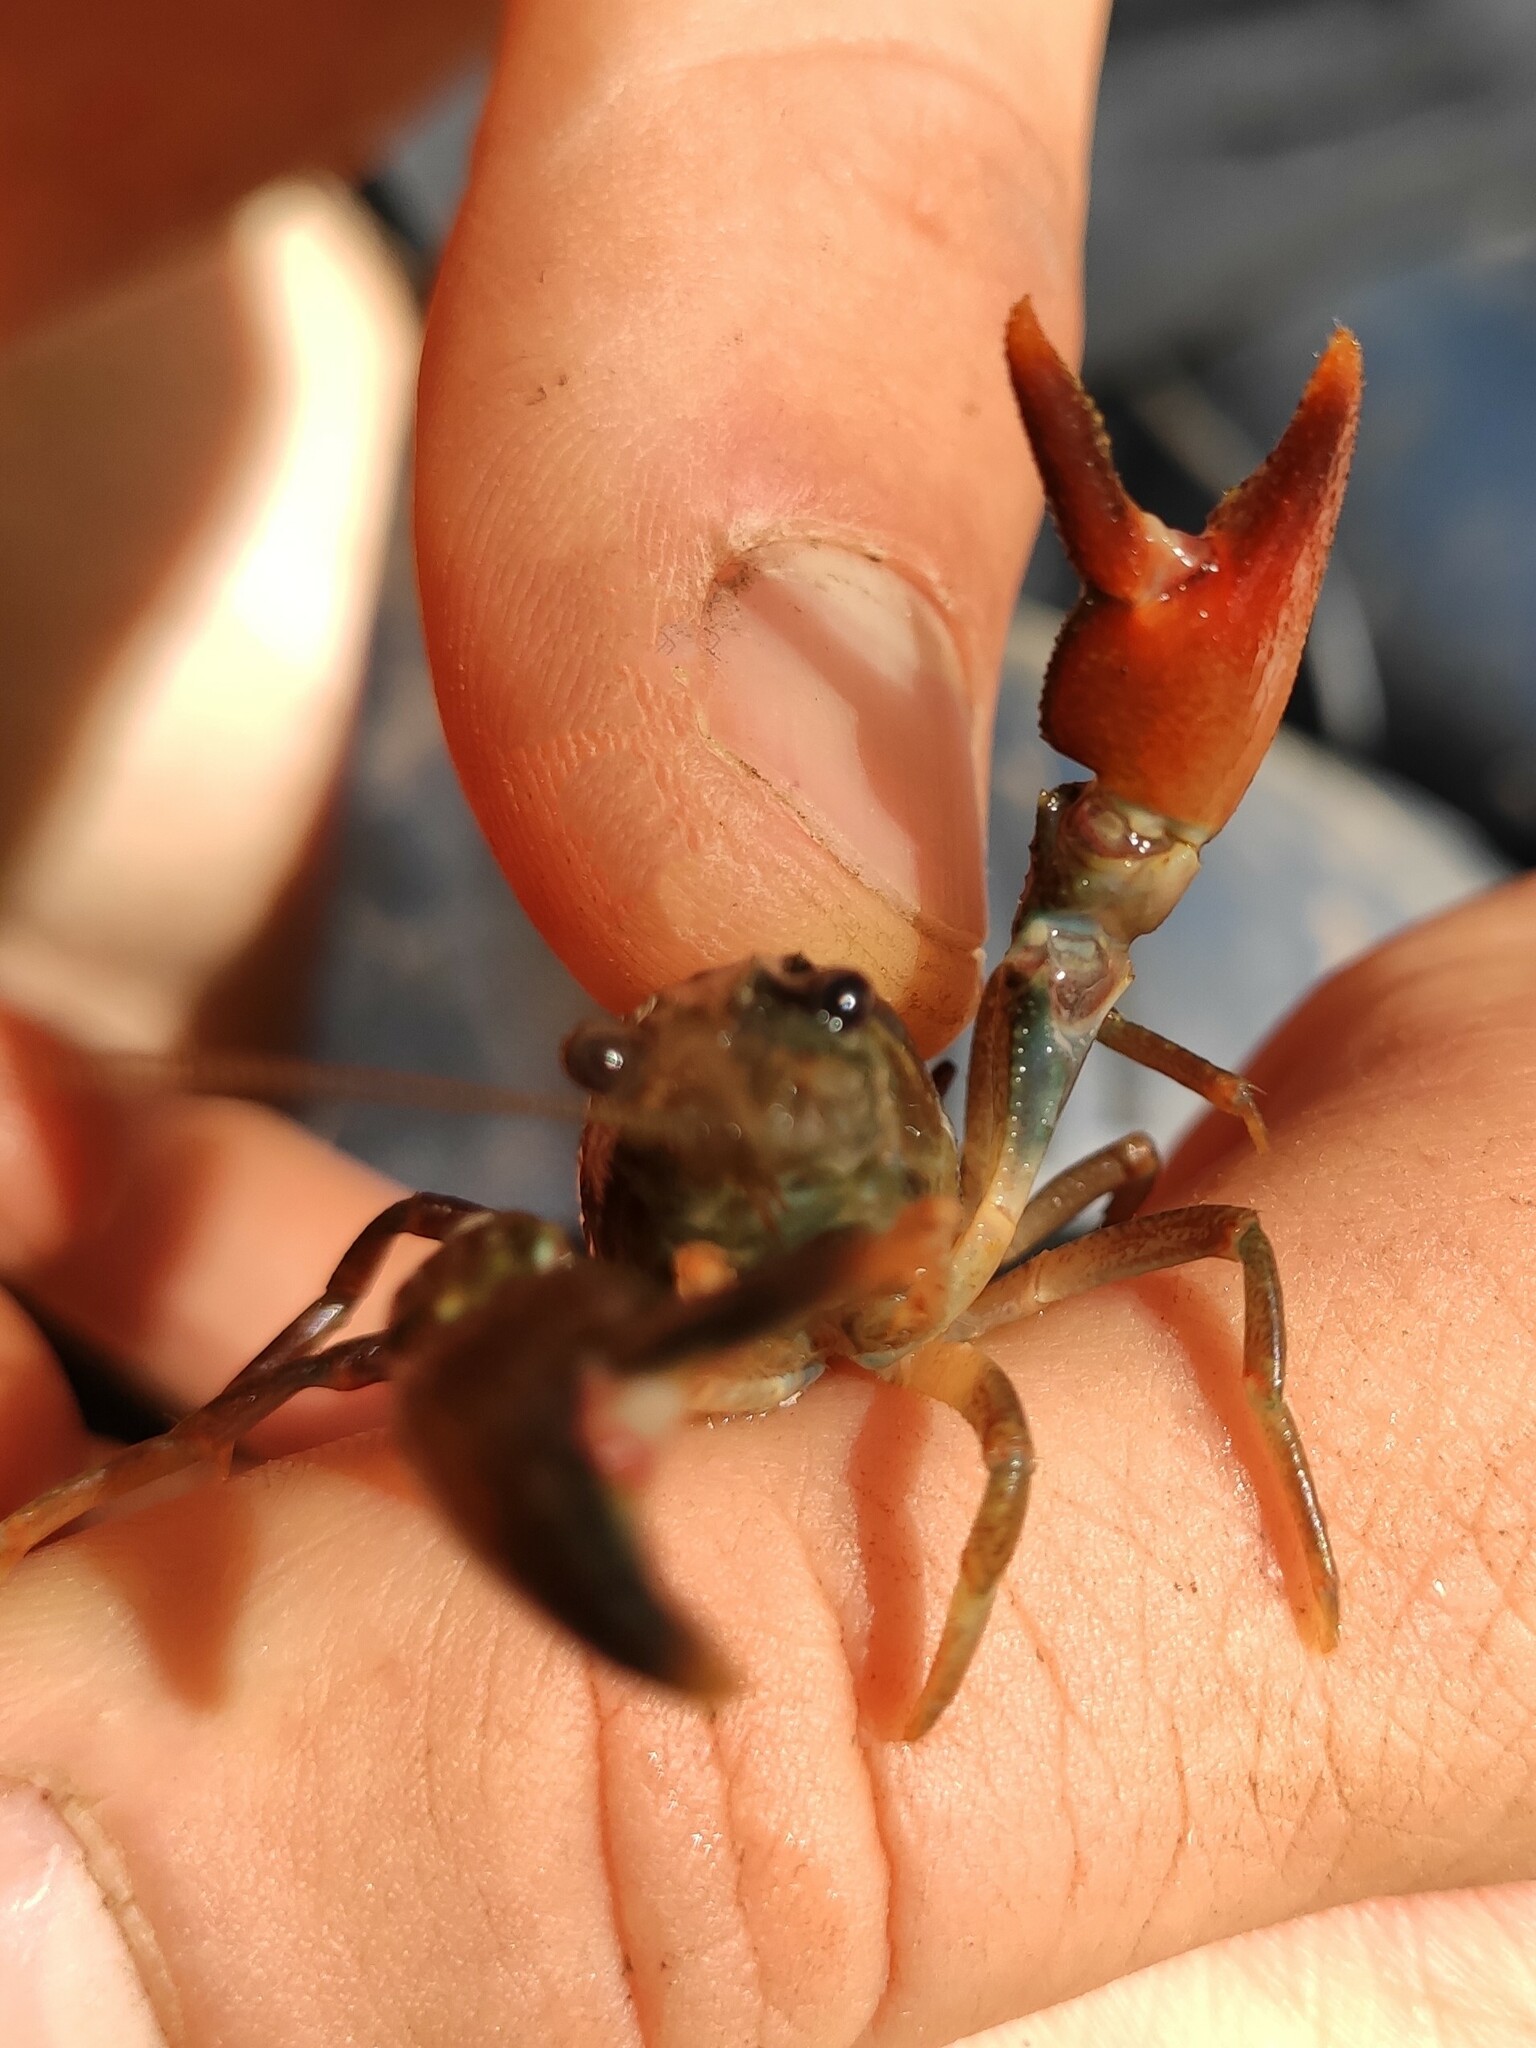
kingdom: Animalia
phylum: Arthropoda
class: Malacostraca
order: Decapoda
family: Astacidae
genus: Pacifastacus
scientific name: Pacifastacus leniusculus
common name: Signal crayfish
